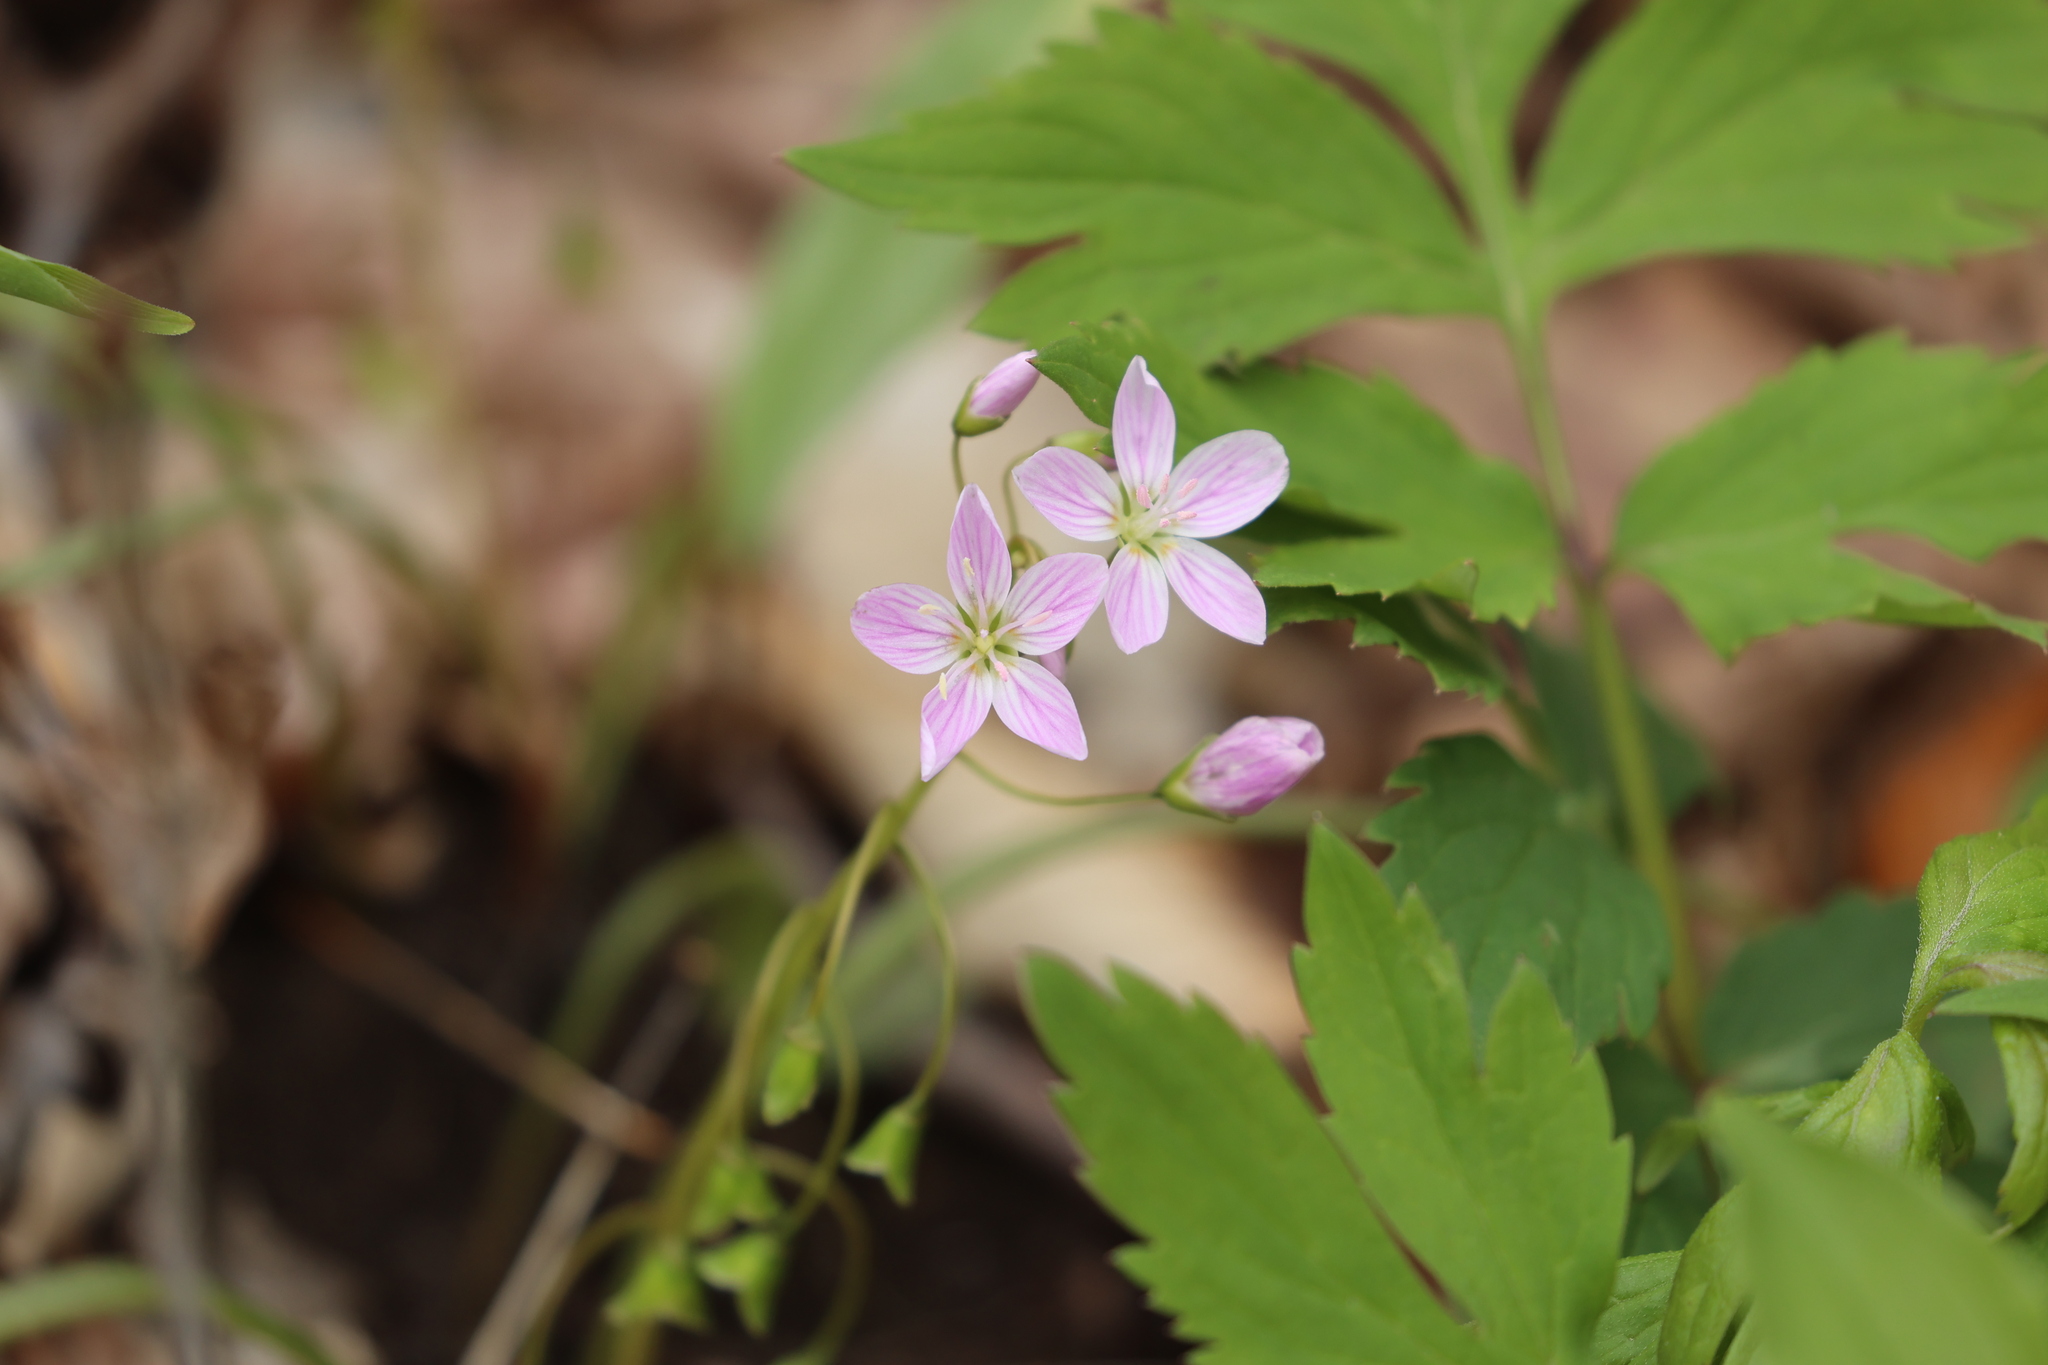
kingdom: Plantae
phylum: Tracheophyta
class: Magnoliopsida
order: Caryophyllales
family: Montiaceae
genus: Claytonia
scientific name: Claytonia virginica
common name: Virginia springbeauty
